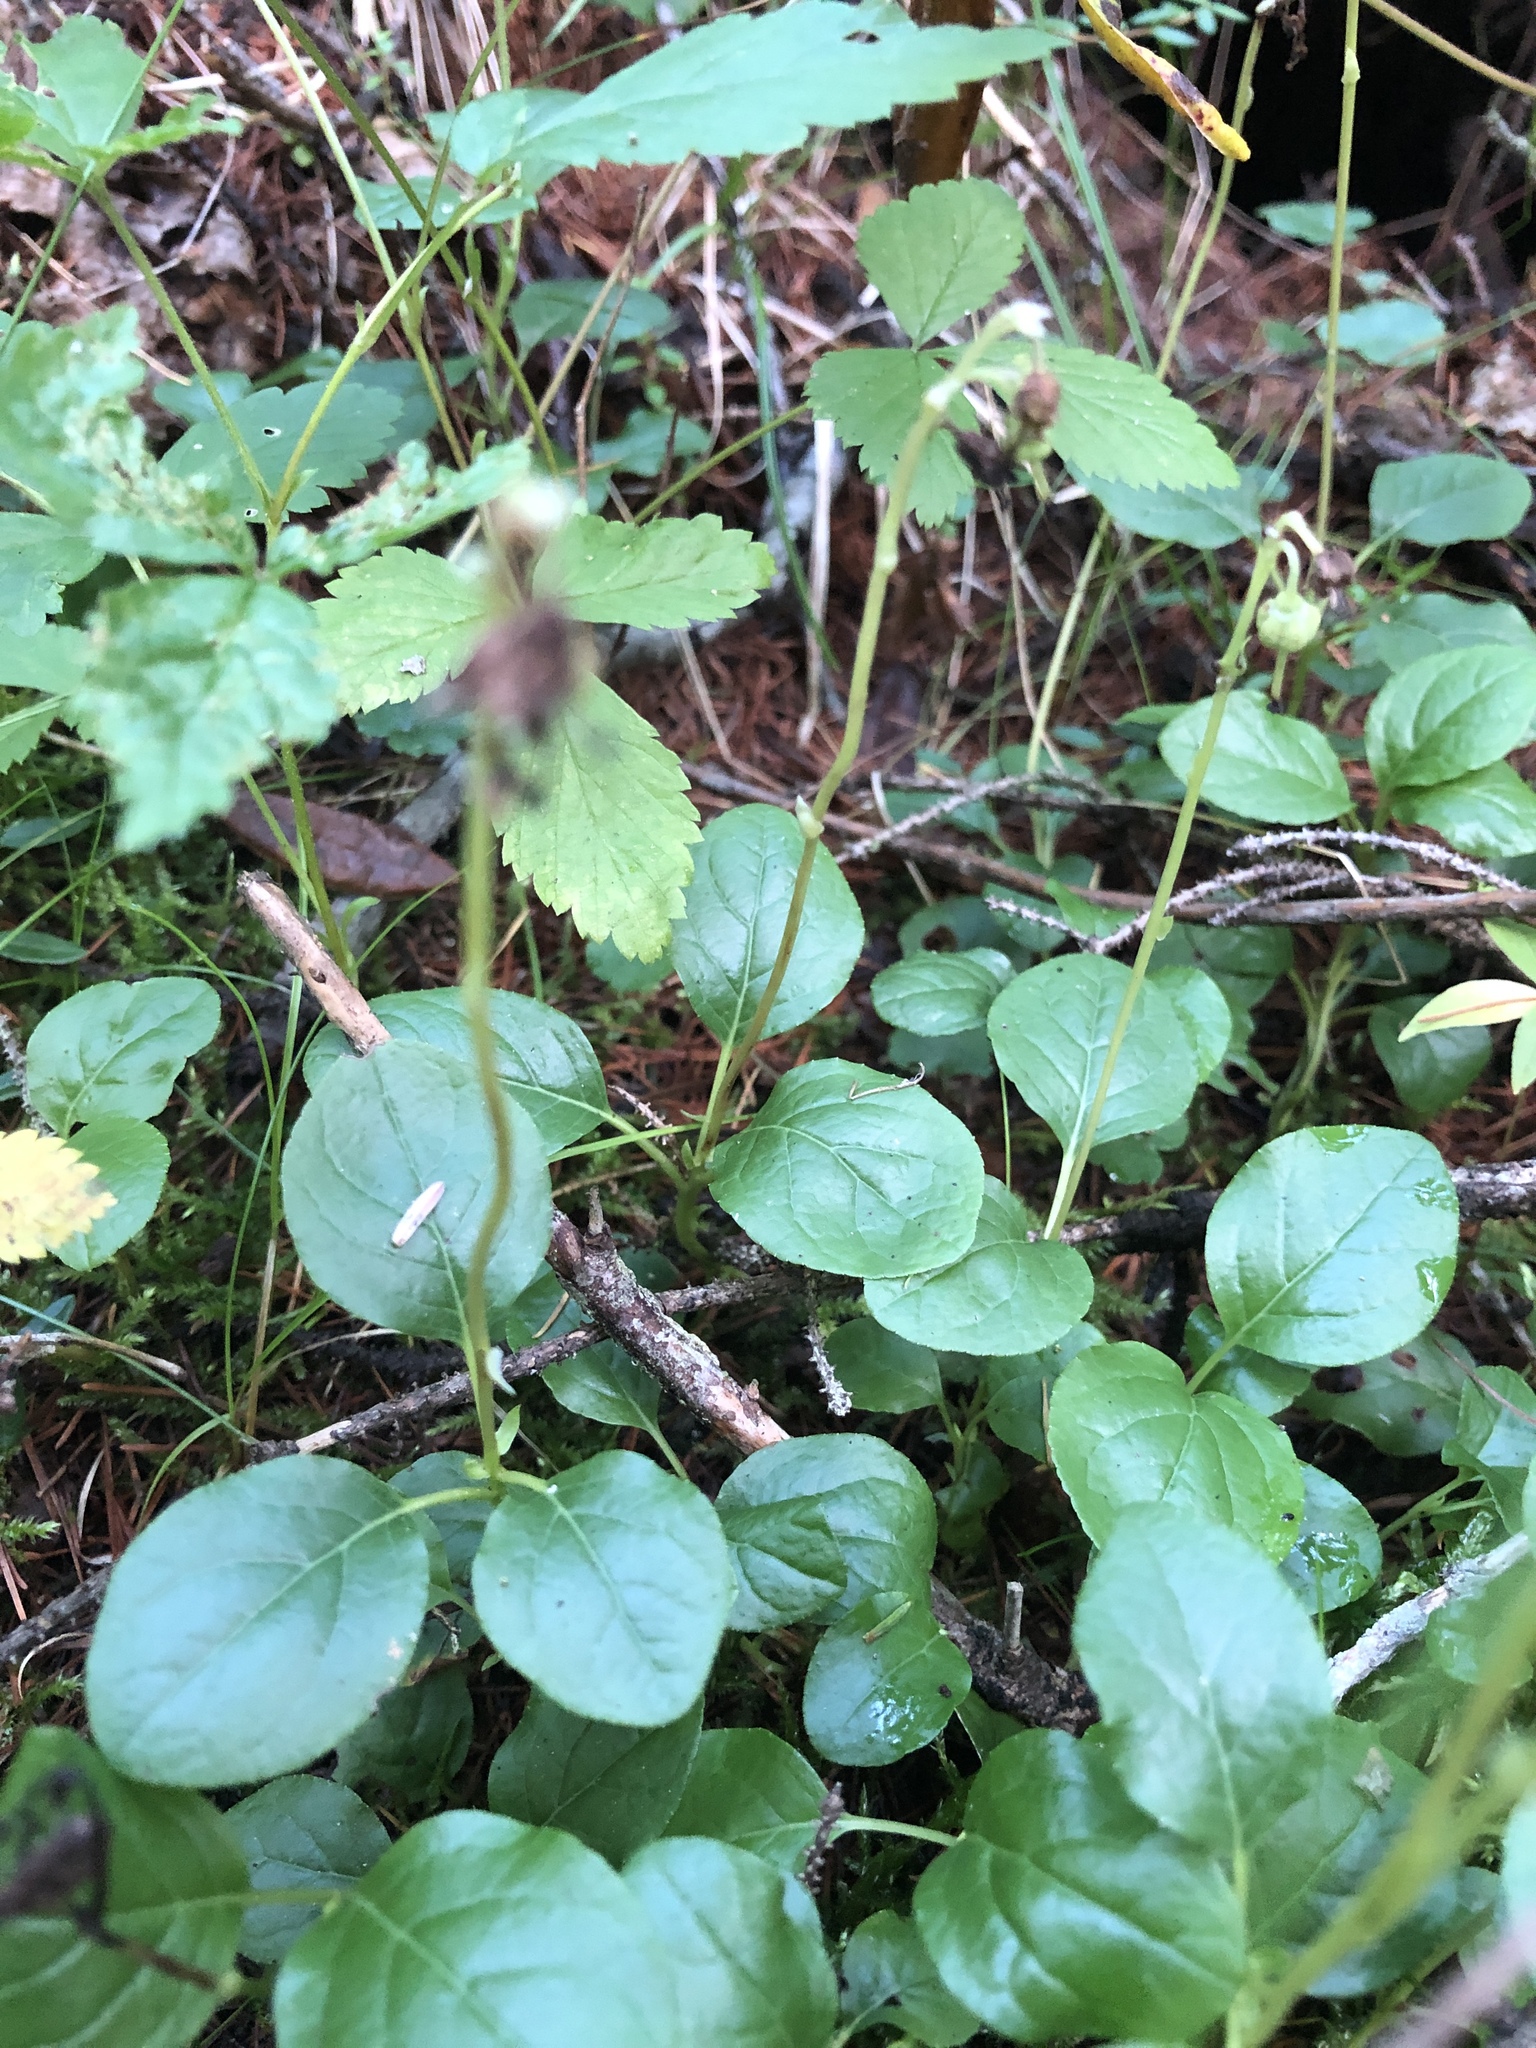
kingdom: Plantae
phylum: Tracheophyta
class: Magnoliopsida
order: Ericales
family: Ericaceae
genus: Orthilia
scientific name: Orthilia secunda
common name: One-sided orthilia
